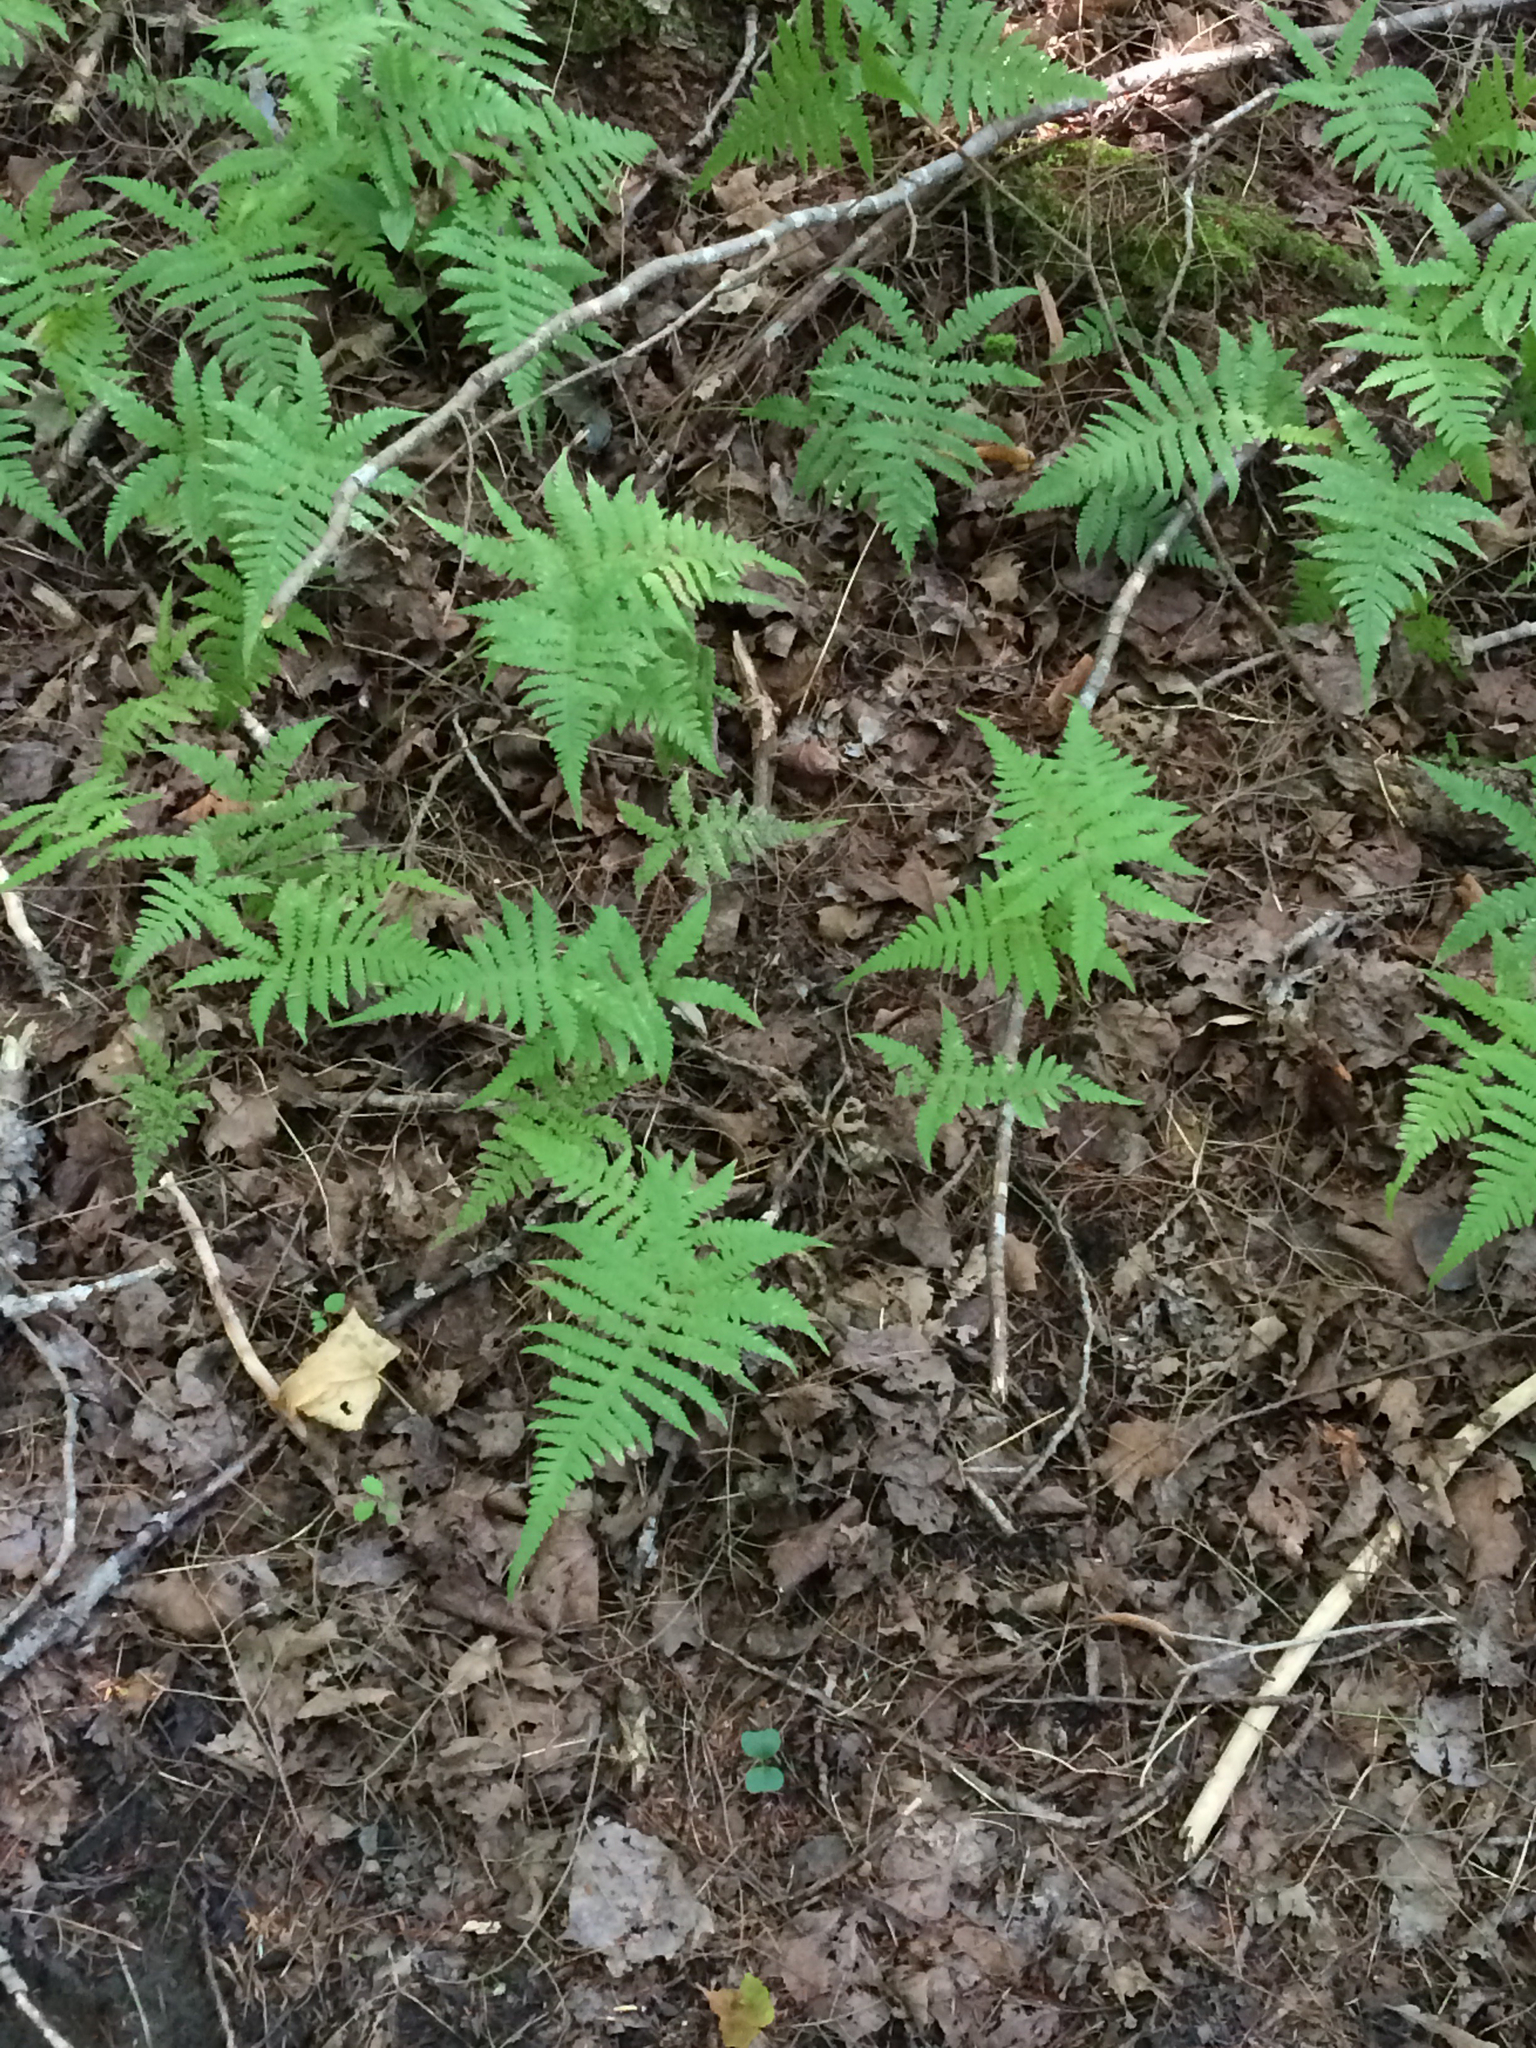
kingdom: Plantae
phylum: Tracheophyta
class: Polypodiopsida
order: Polypodiales
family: Thelypteridaceae
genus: Phegopteris
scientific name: Phegopteris connectilis
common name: Beech fern
